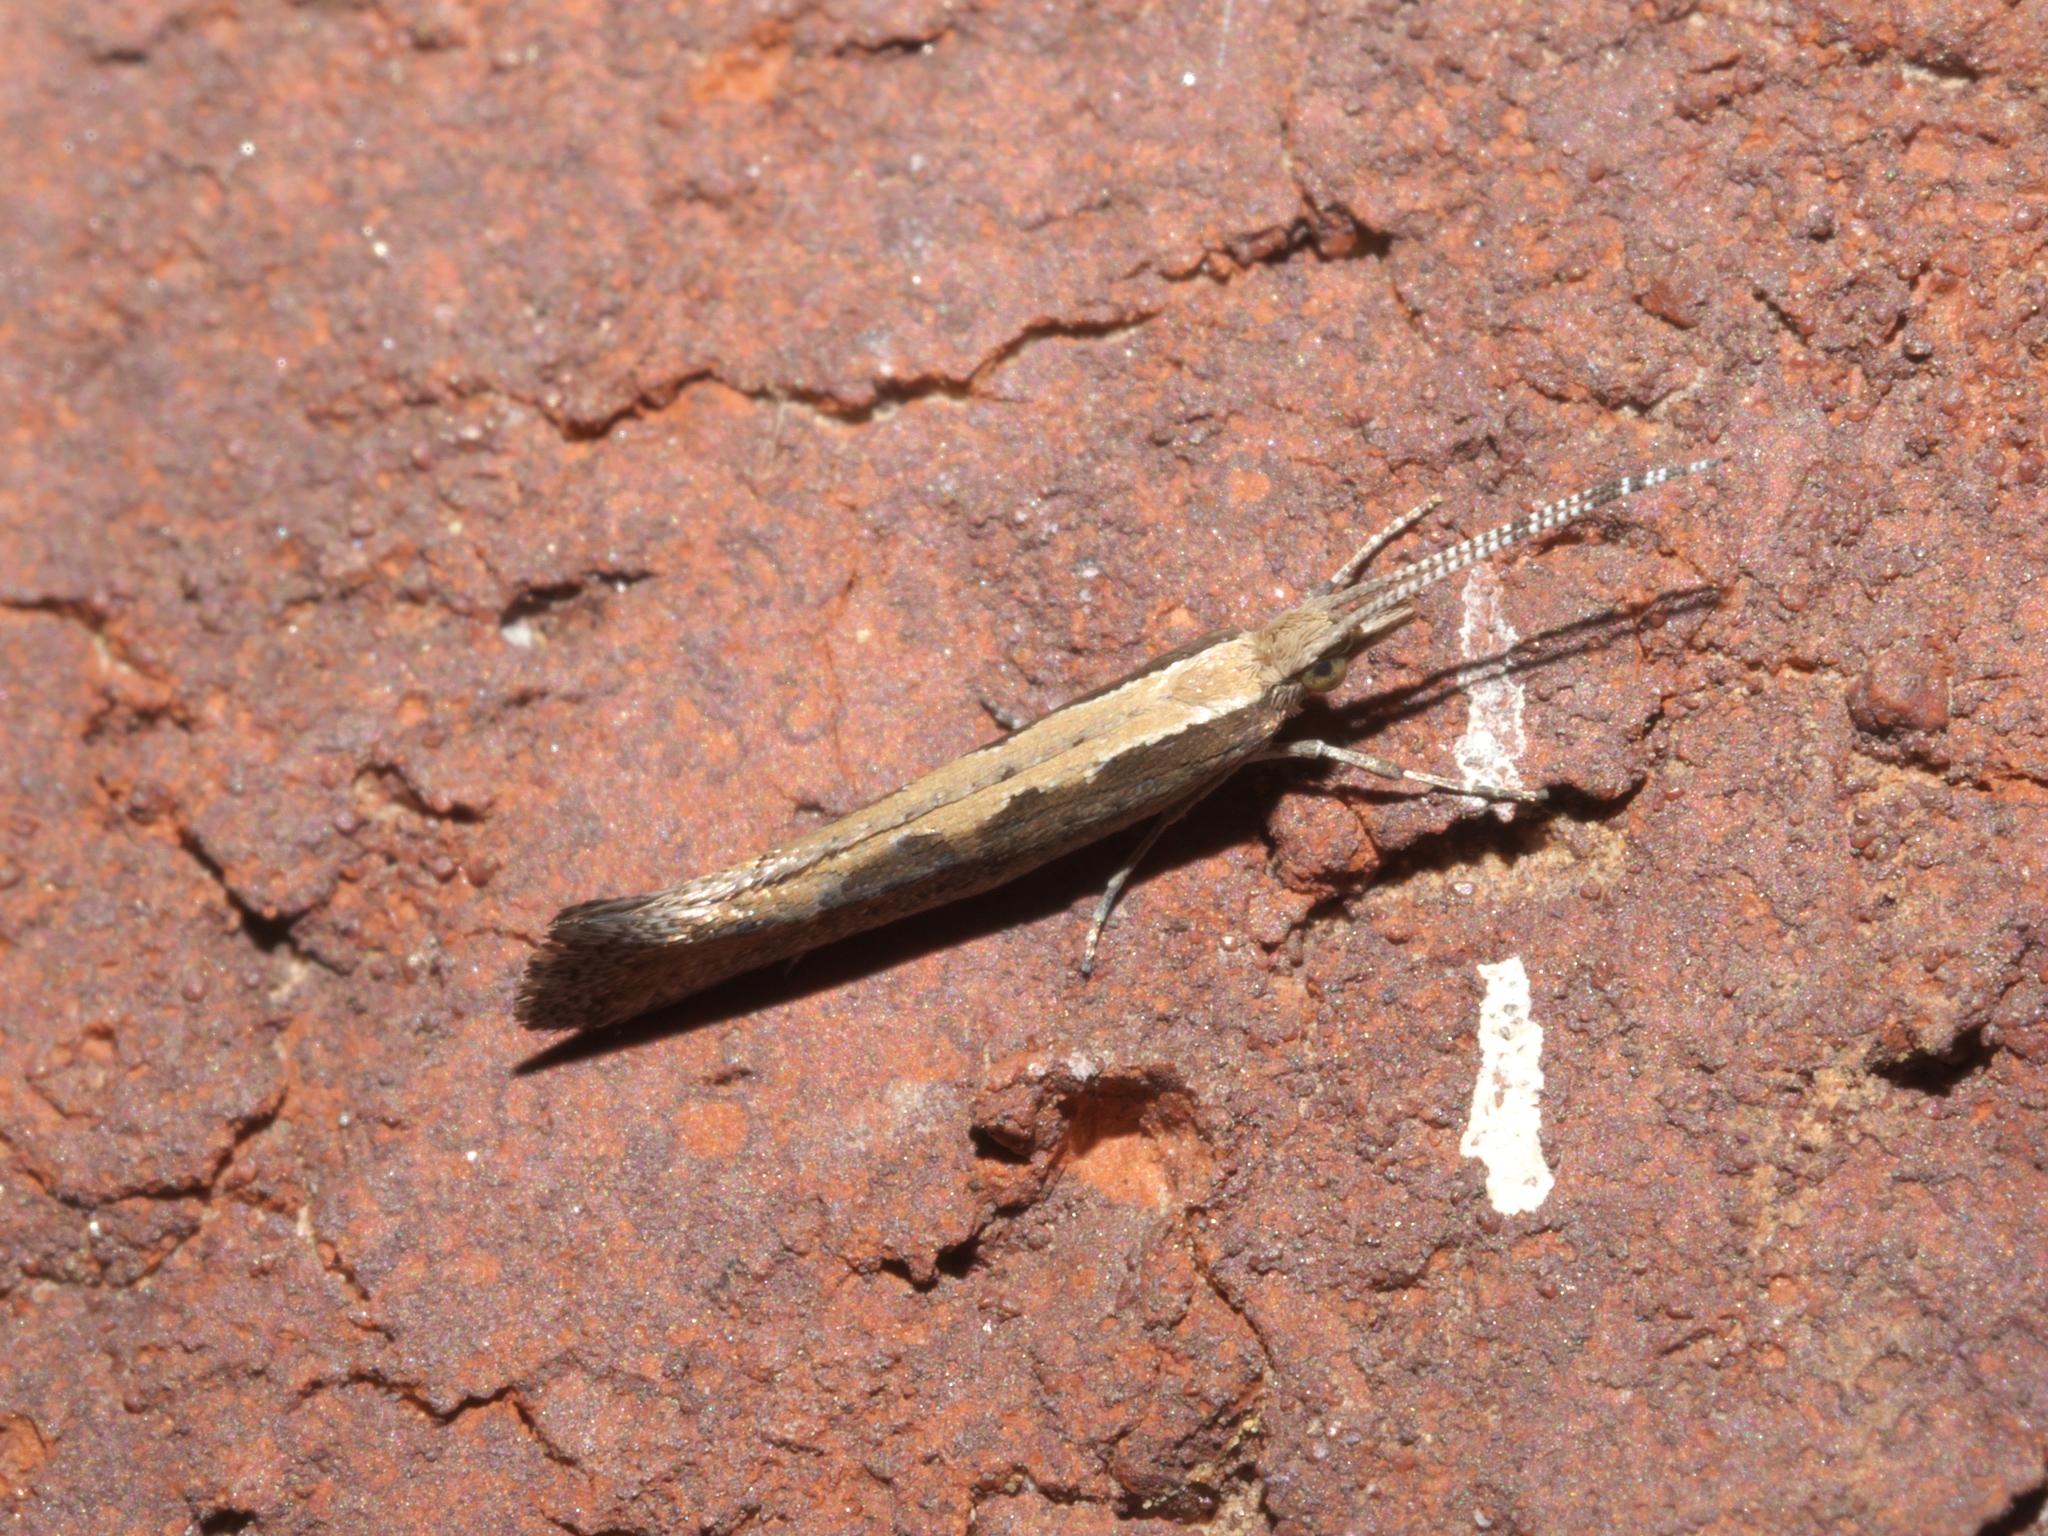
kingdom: Animalia
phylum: Arthropoda
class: Insecta
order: Lepidoptera
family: Plutellidae
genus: Plutella
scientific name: Plutella xylostella
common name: Diamond-back moth
